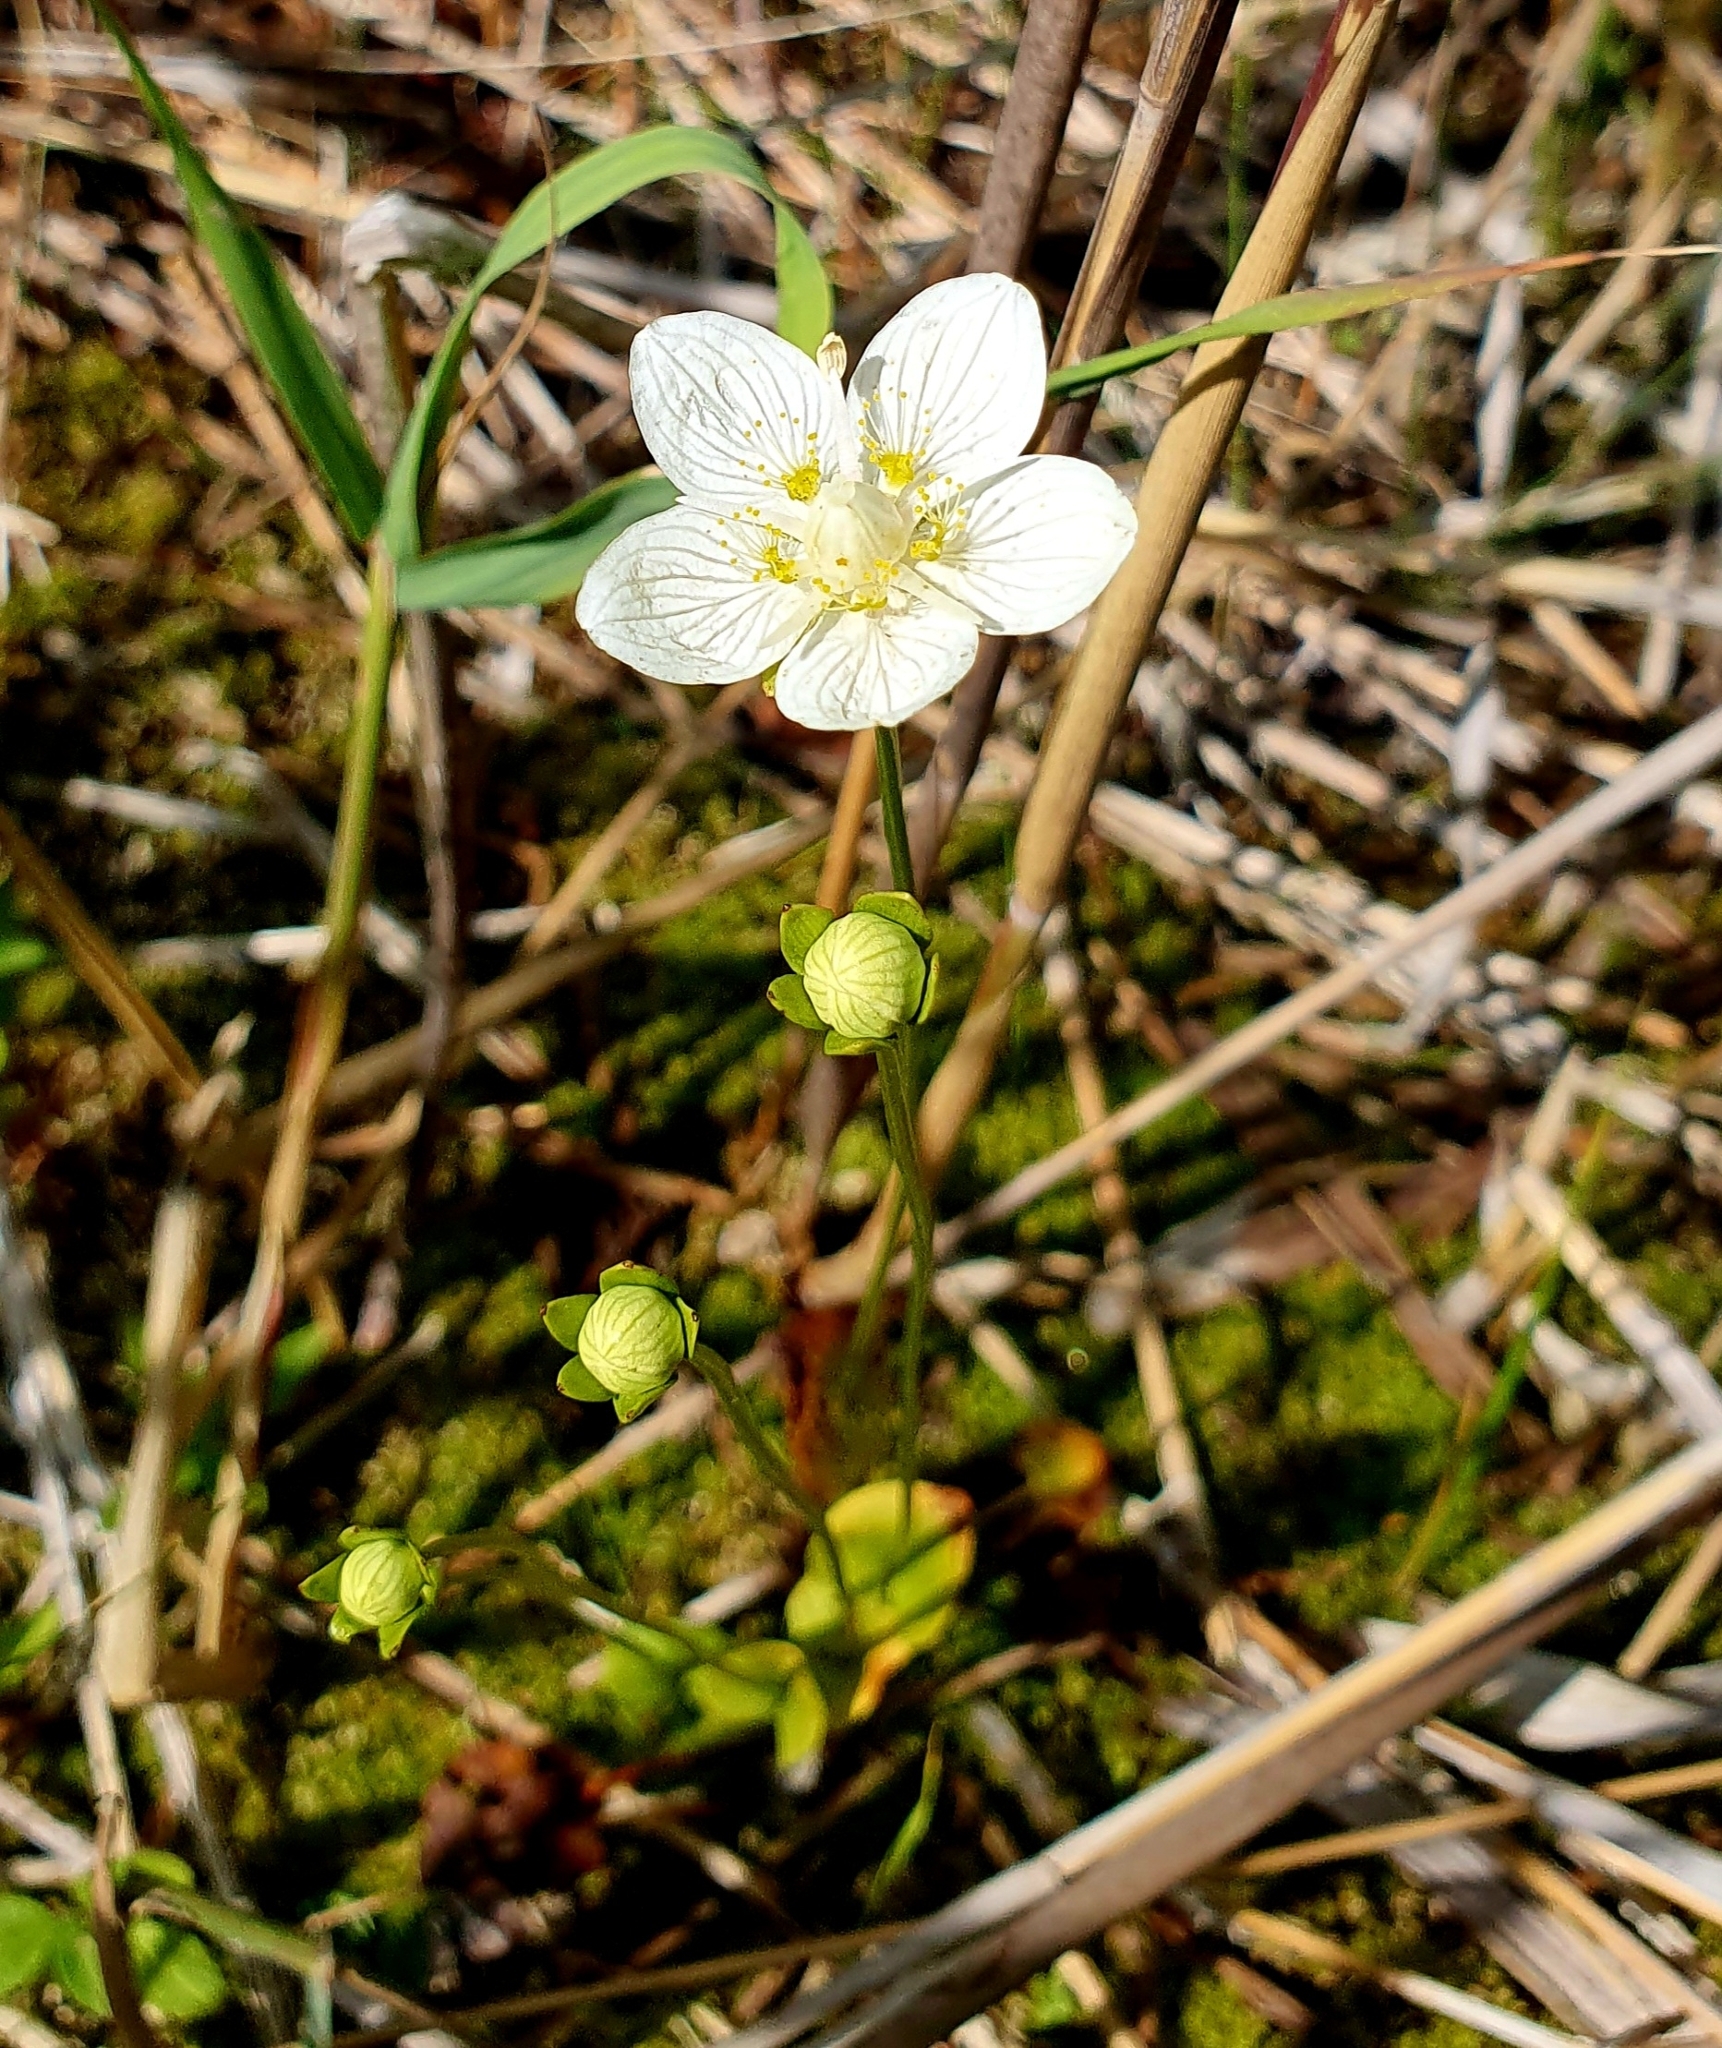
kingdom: Plantae
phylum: Tracheophyta
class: Magnoliopsida
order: Celastrales
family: Parnassiaceae
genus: Parnassia
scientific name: Parnassia palustris
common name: Grass-of-parnassus
